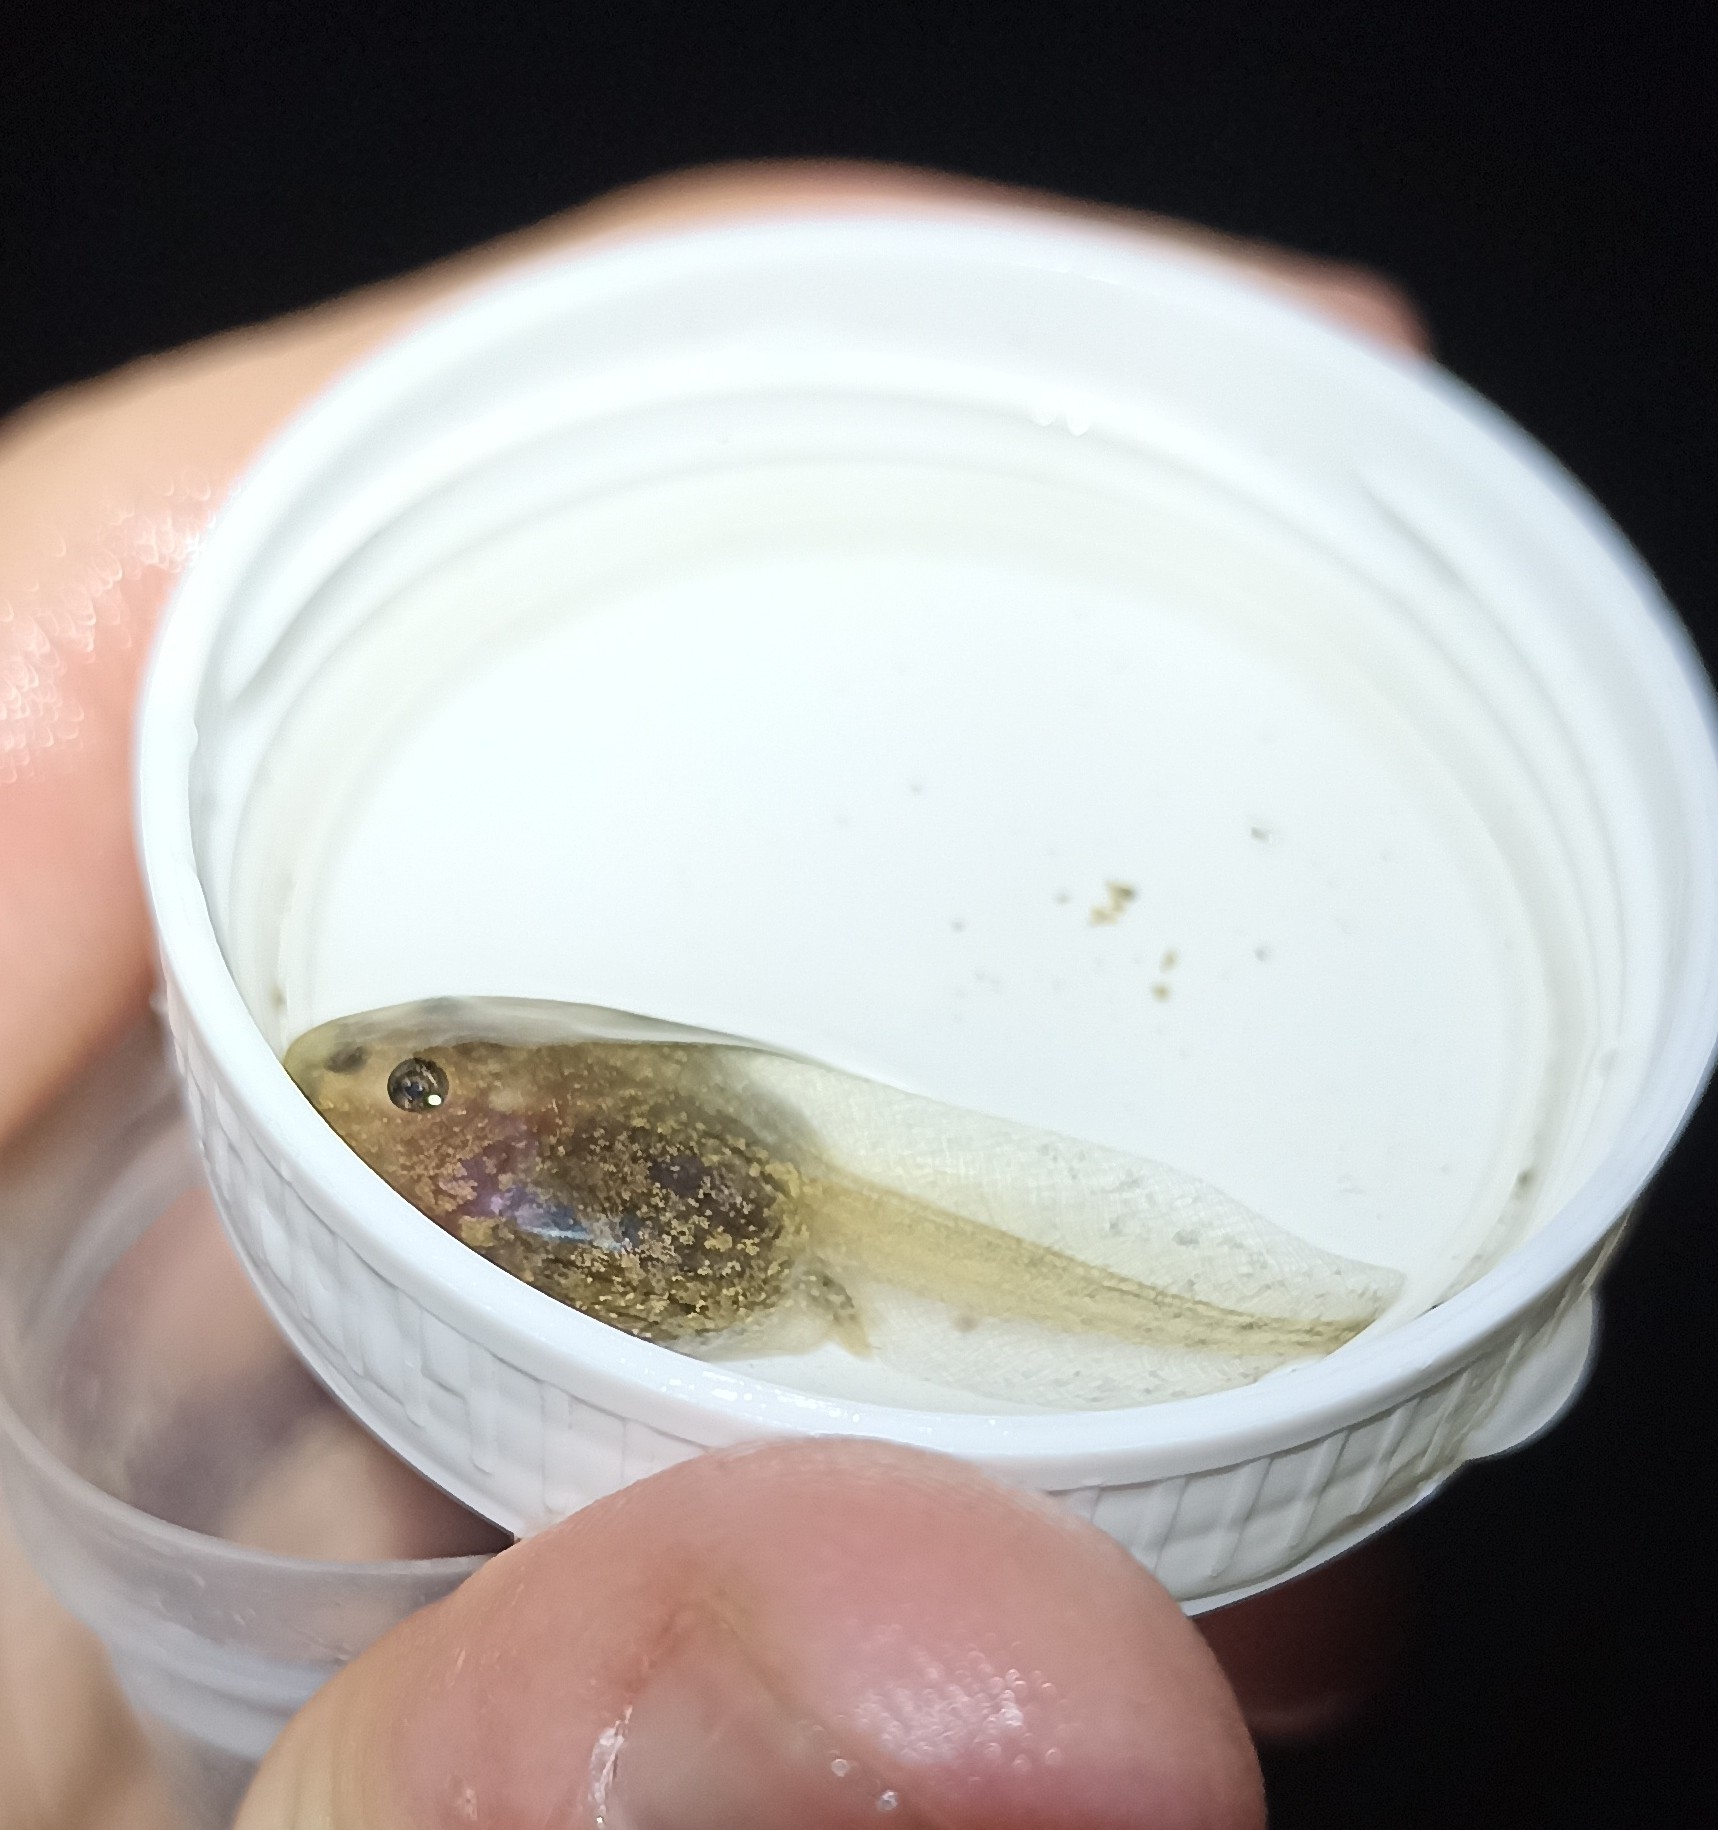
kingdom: Animalia
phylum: Chordata
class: Amphibia
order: Anura
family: Pelodytidae
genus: Pelodytes
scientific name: Pelodytes punctatus
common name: Parsley frog
